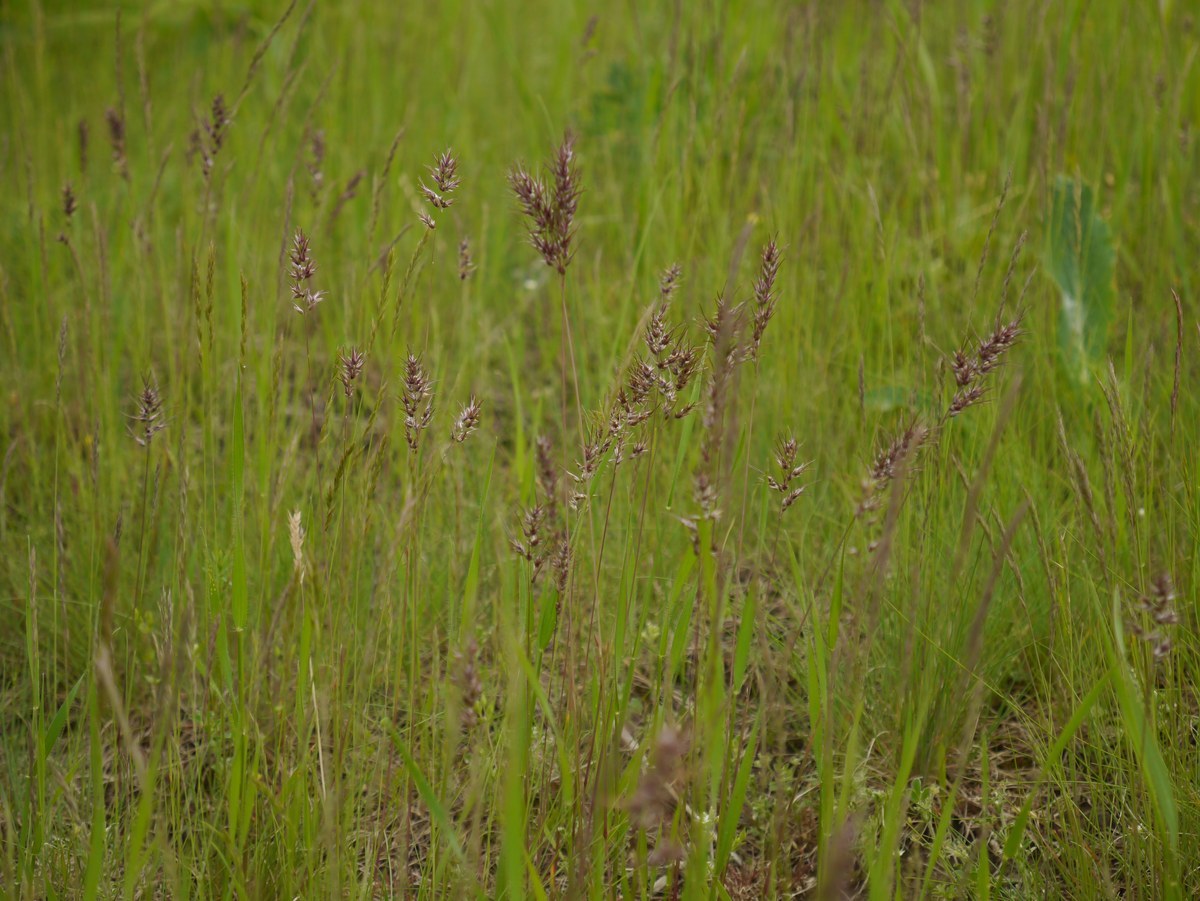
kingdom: Plantae
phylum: Tracheophyta
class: Liliopsida
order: Poales
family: Poaceae
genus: Poa
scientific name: Poa bulbosa
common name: Bulbous bluegrass
